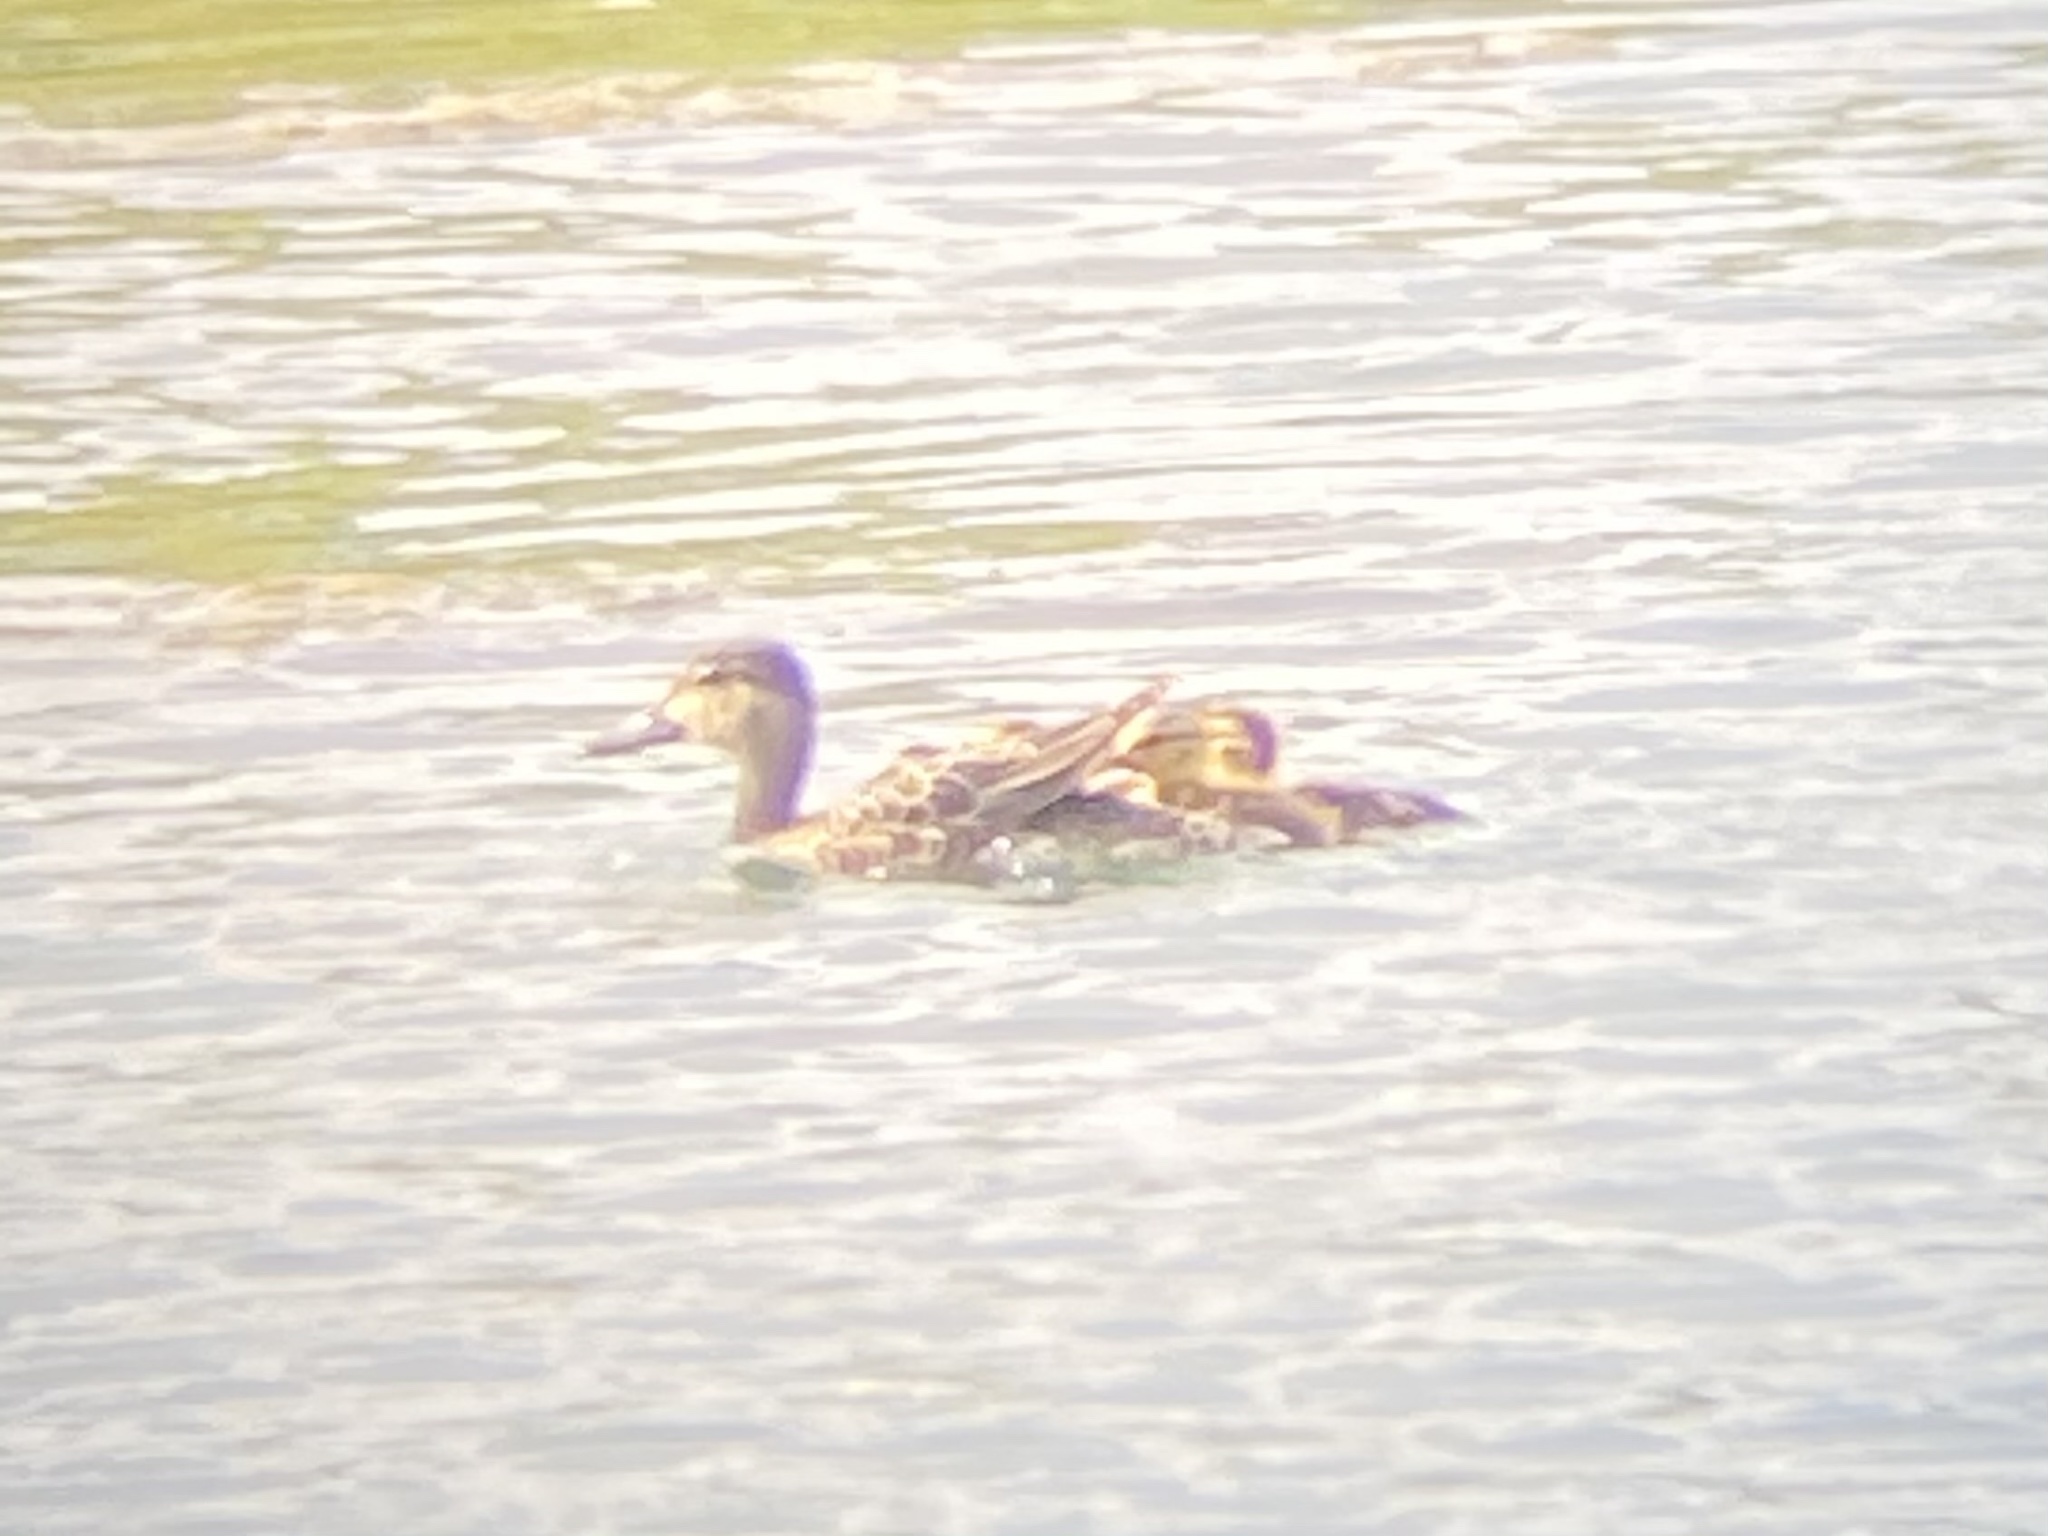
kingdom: Animalia
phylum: Chordata
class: Aves
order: Anseriformes
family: Anatidae
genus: Spatula
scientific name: Spatula discors
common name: Blue-winged teal
